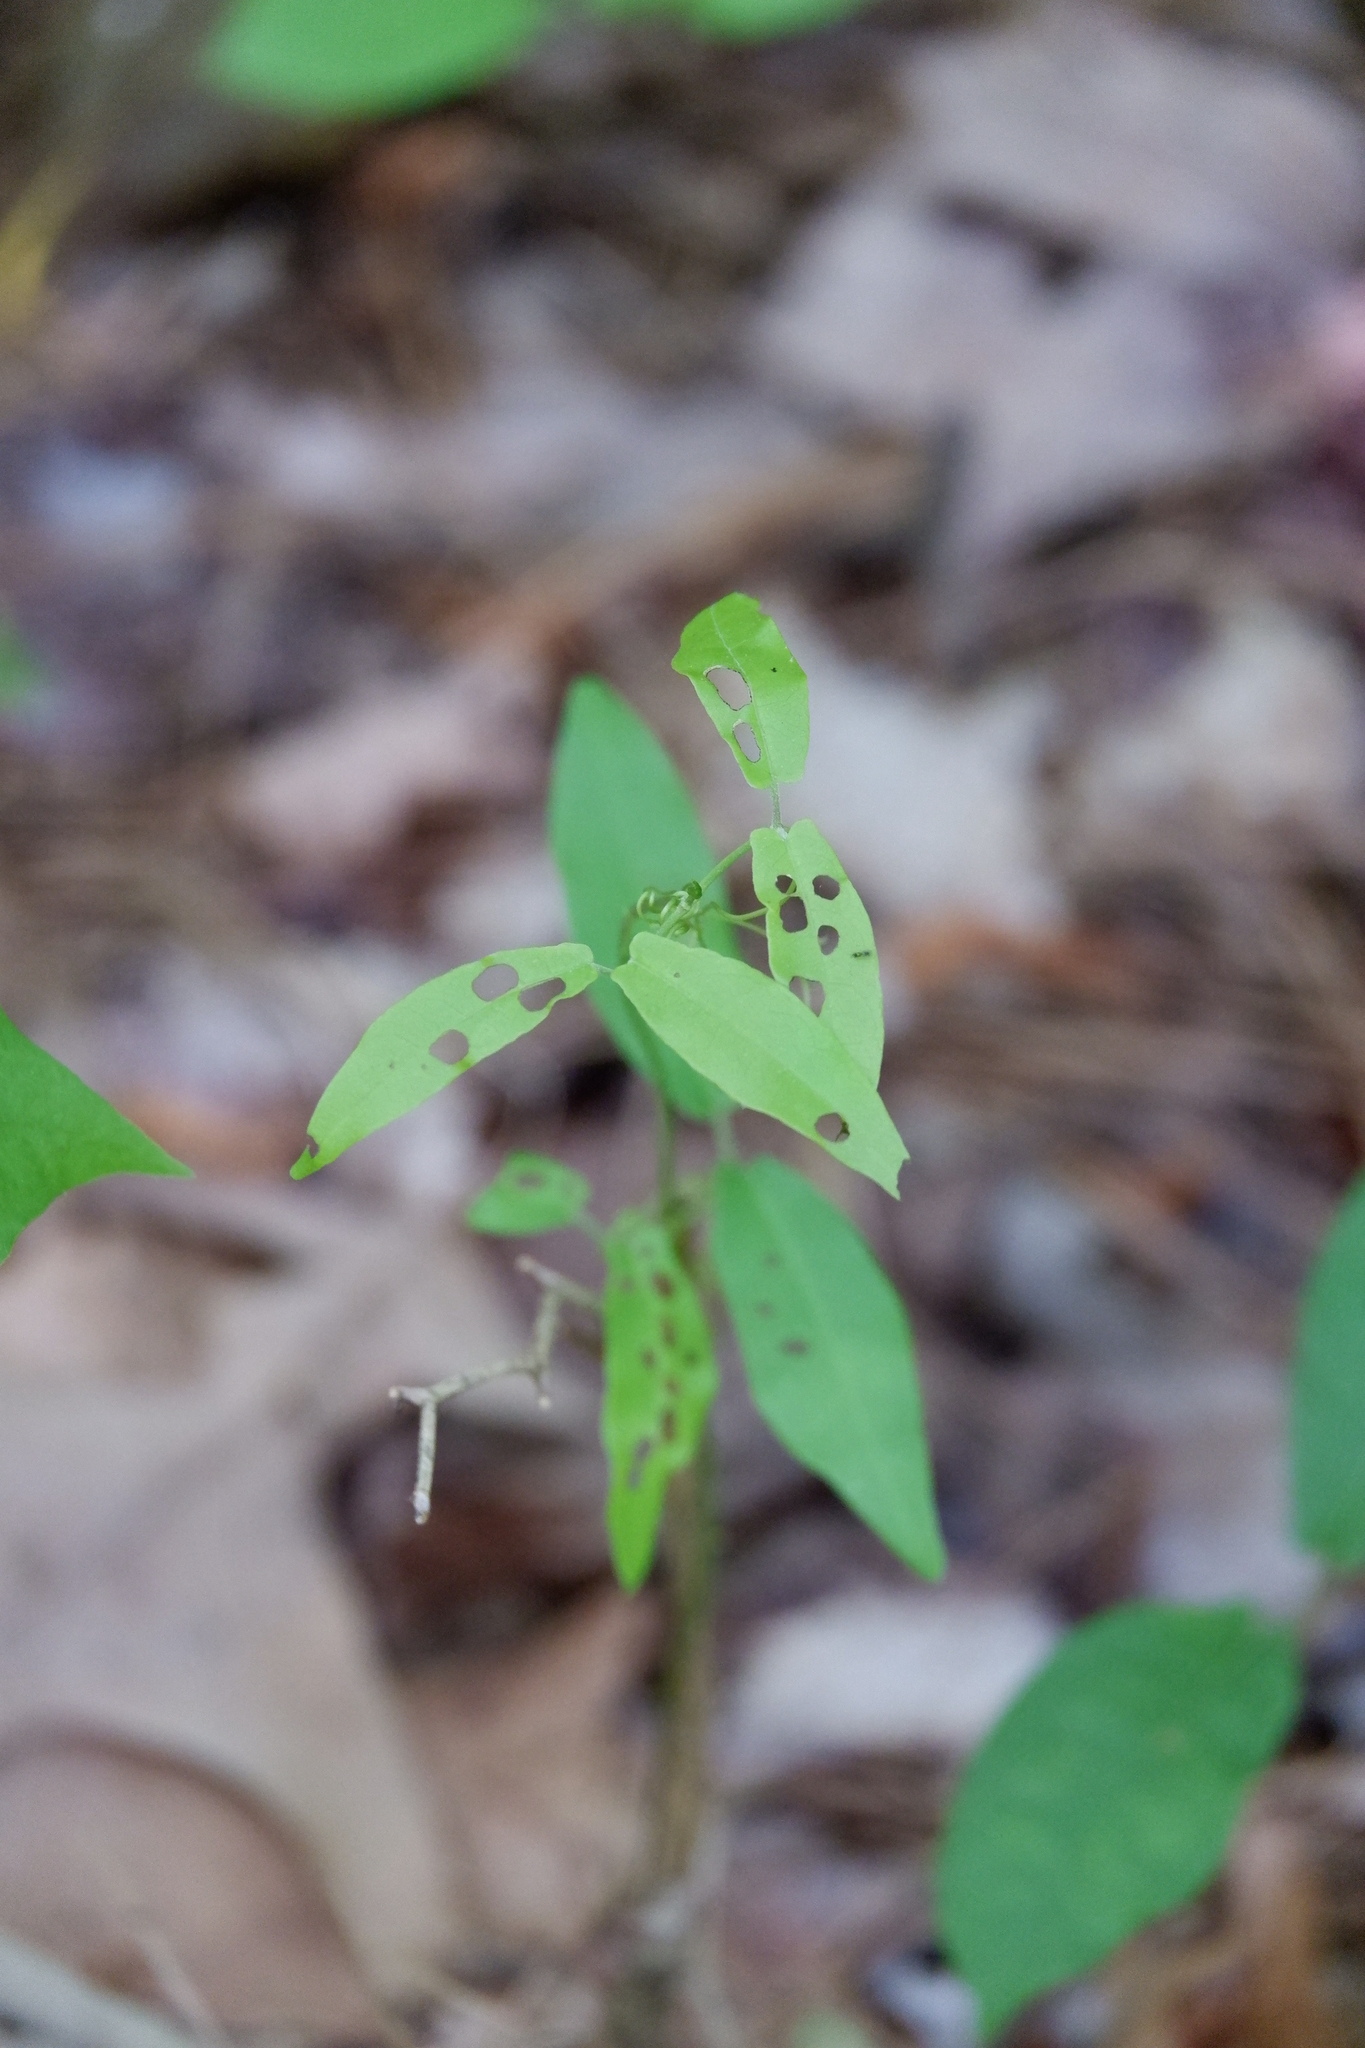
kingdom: Plantae
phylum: Tracheophyta
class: Magnoliopsida
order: Lamiales
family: Bignoniaceae
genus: Bignonia
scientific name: Bignonia capreolata
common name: Crossvine
